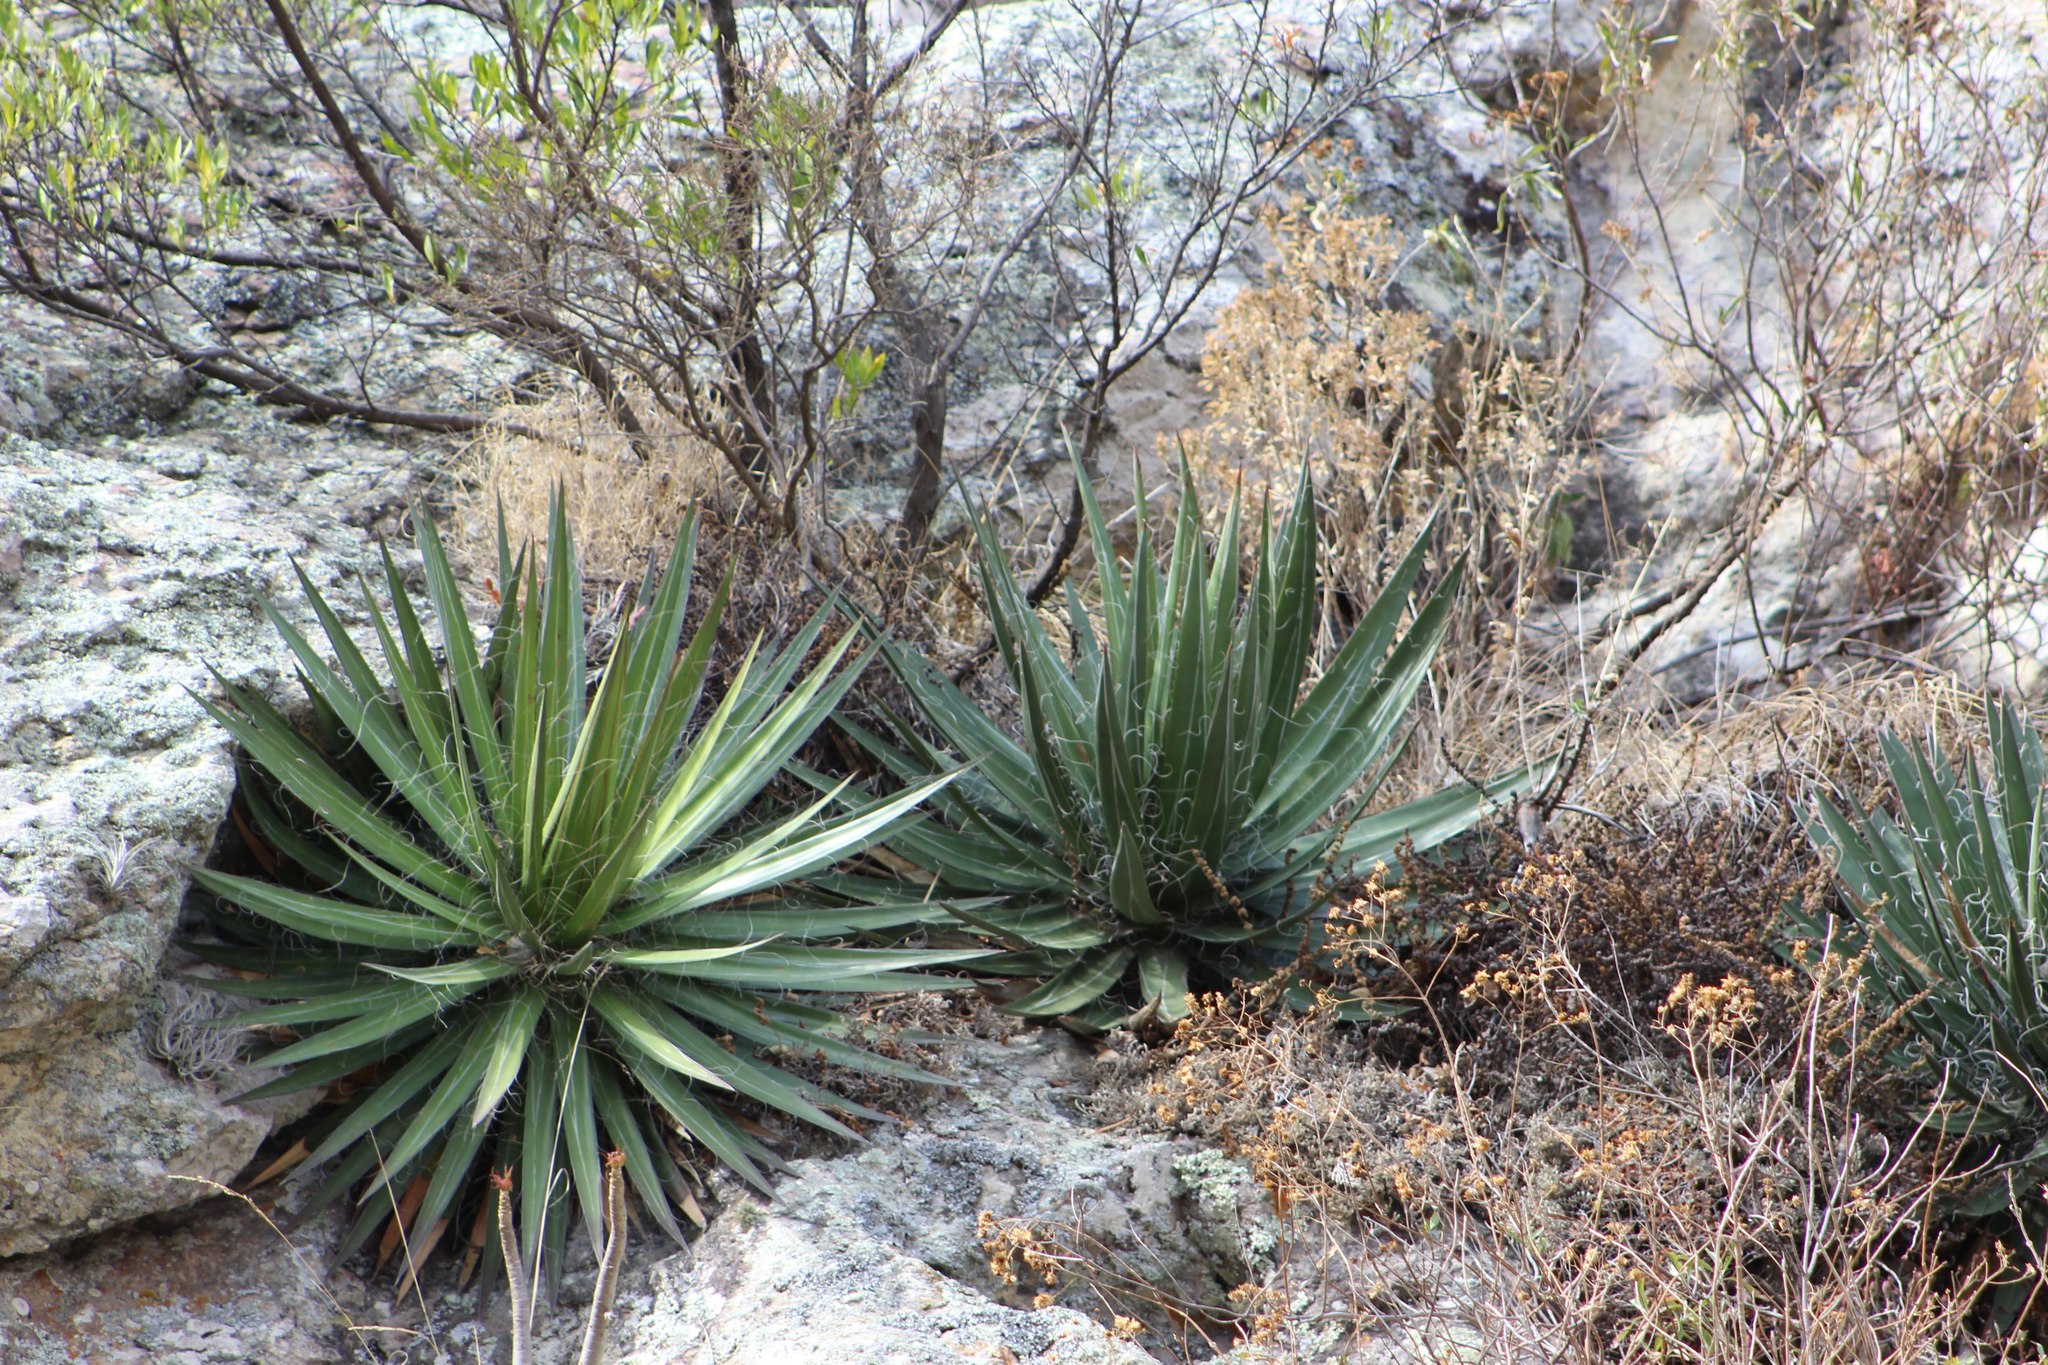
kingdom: Plantae
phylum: Tracheophyta
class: Liliopsida
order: Asparagales
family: Asparagaceae
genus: Agave
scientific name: Agave schidigera
